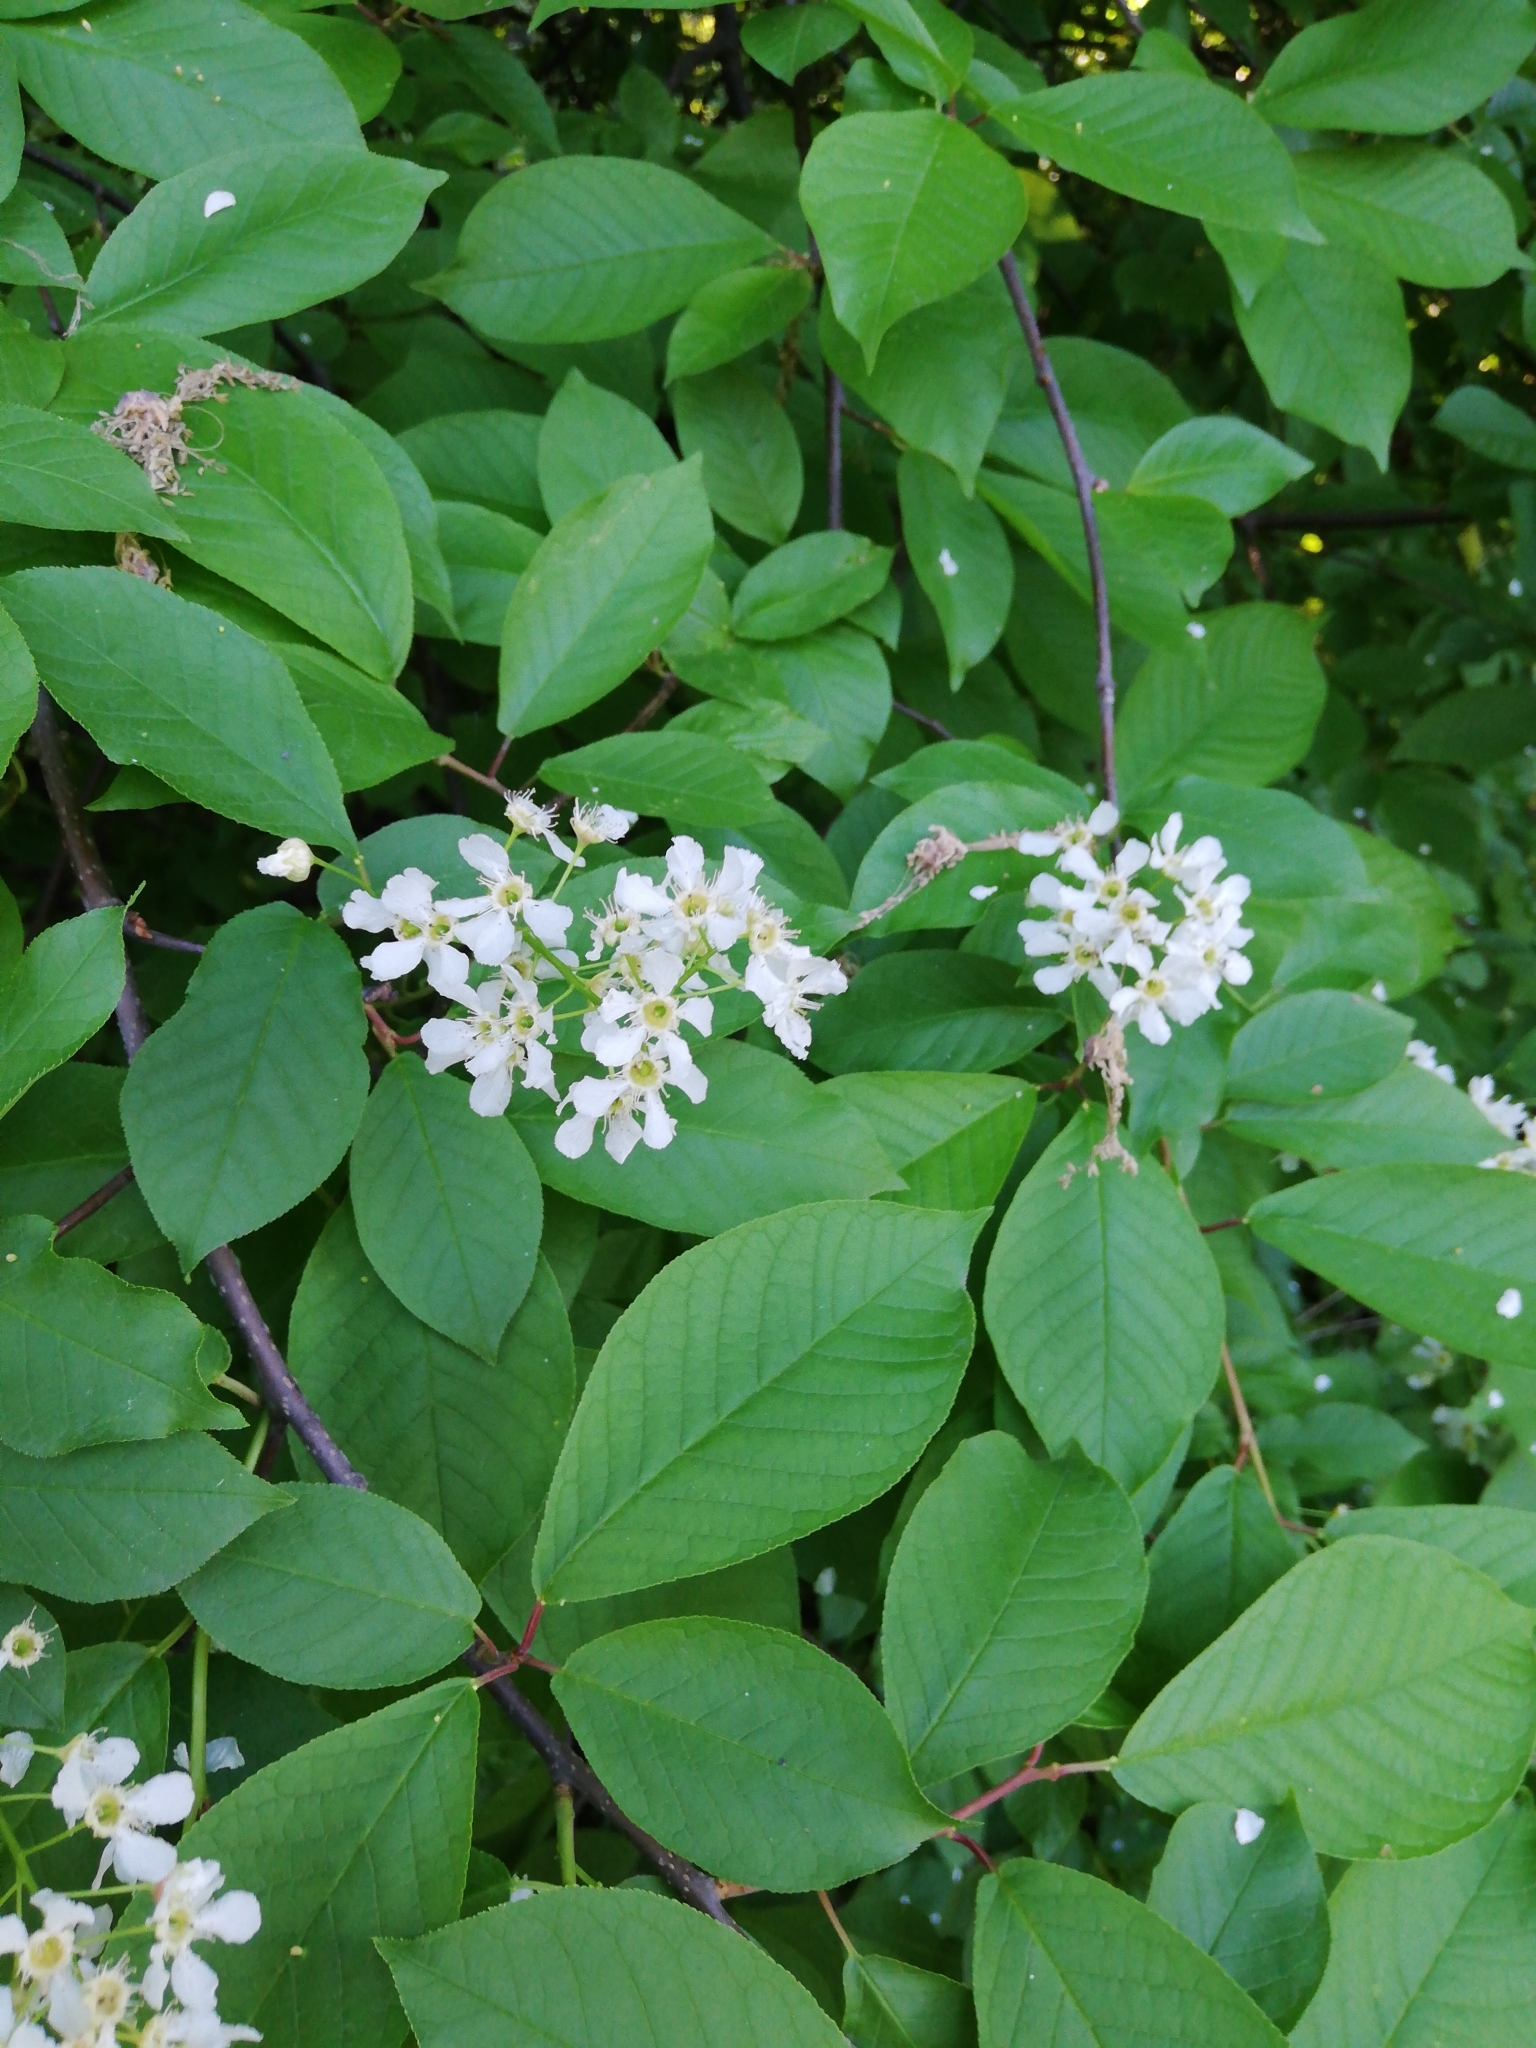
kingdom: Plantae
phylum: Tracheophyta
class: Magnoliopsida
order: Rosales
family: Rosaceae
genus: Prunus
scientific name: Prunus padus
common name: Bird cherry
